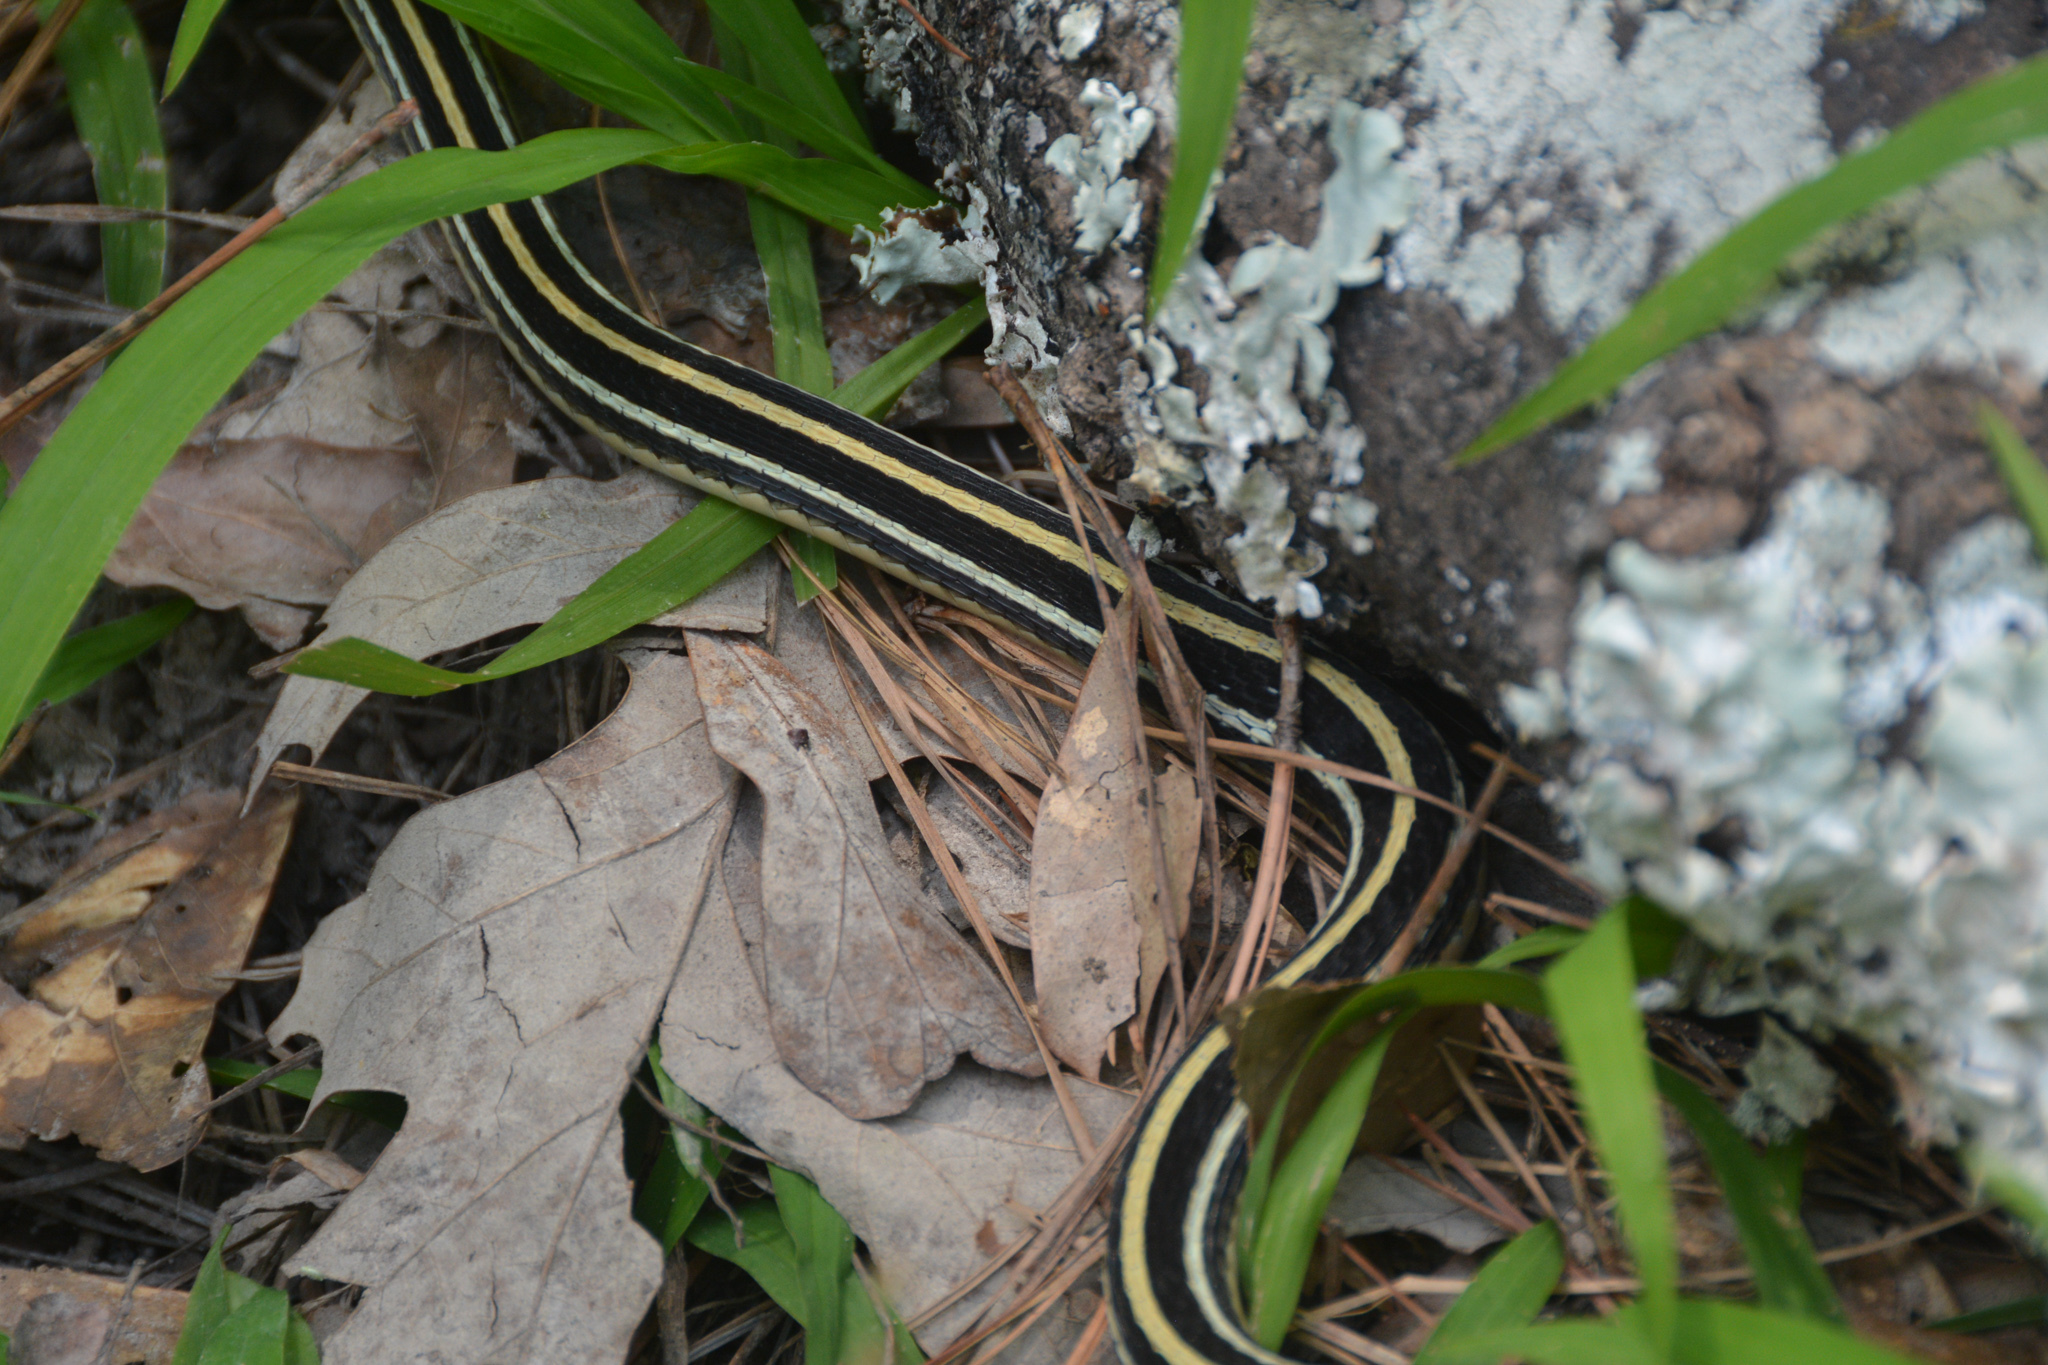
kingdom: Animalia
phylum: Chordata
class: Squamata
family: Colubridae
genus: Thamnophis
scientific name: Thamnophis proximus
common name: Western ribbon snake
